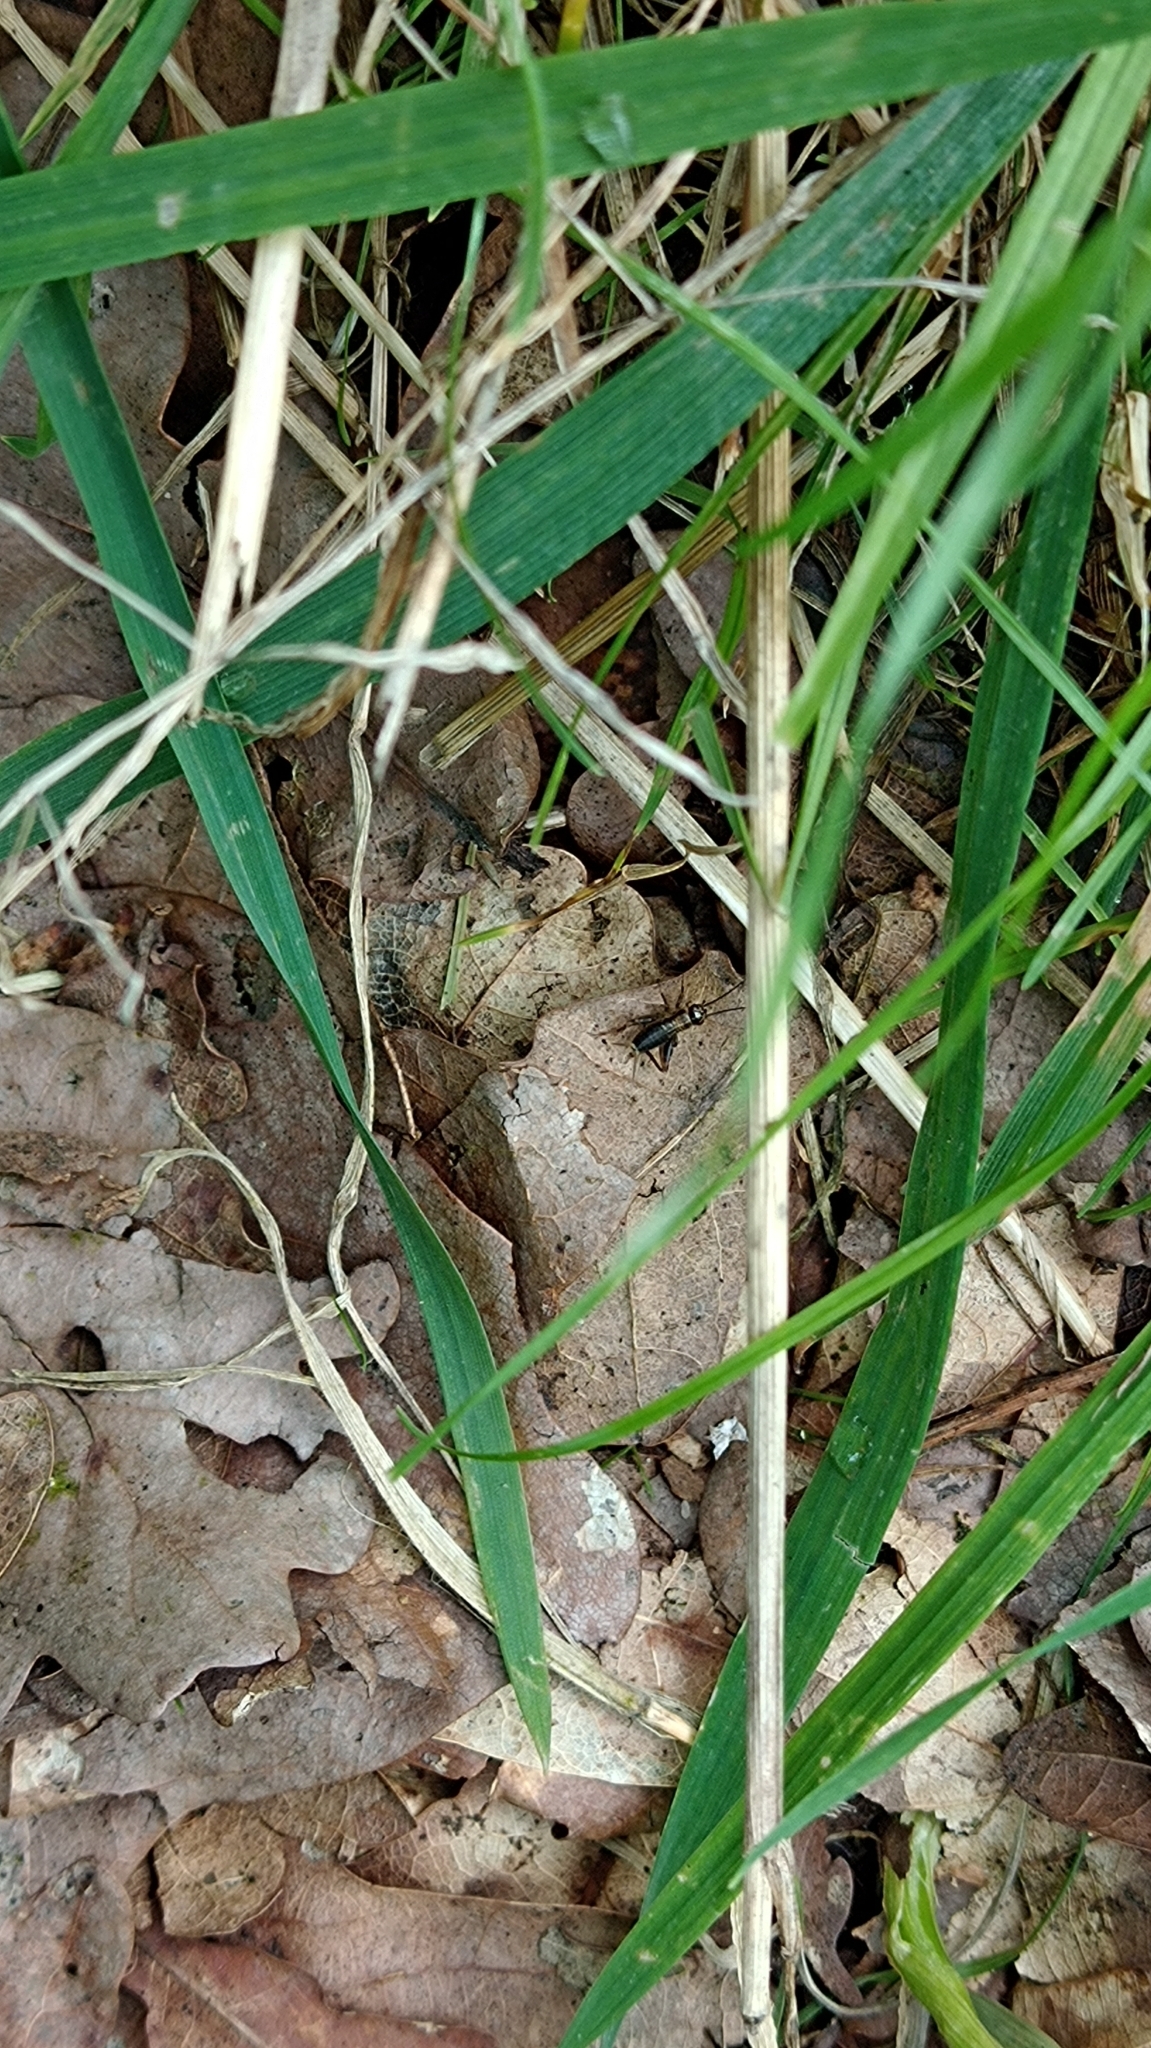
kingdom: Animalia
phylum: Arthropoda
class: Insecta
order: Orthoptera
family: Trigonidiidae
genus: Nemobius
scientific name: Nemobius sylvestris
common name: Wood-cricket
